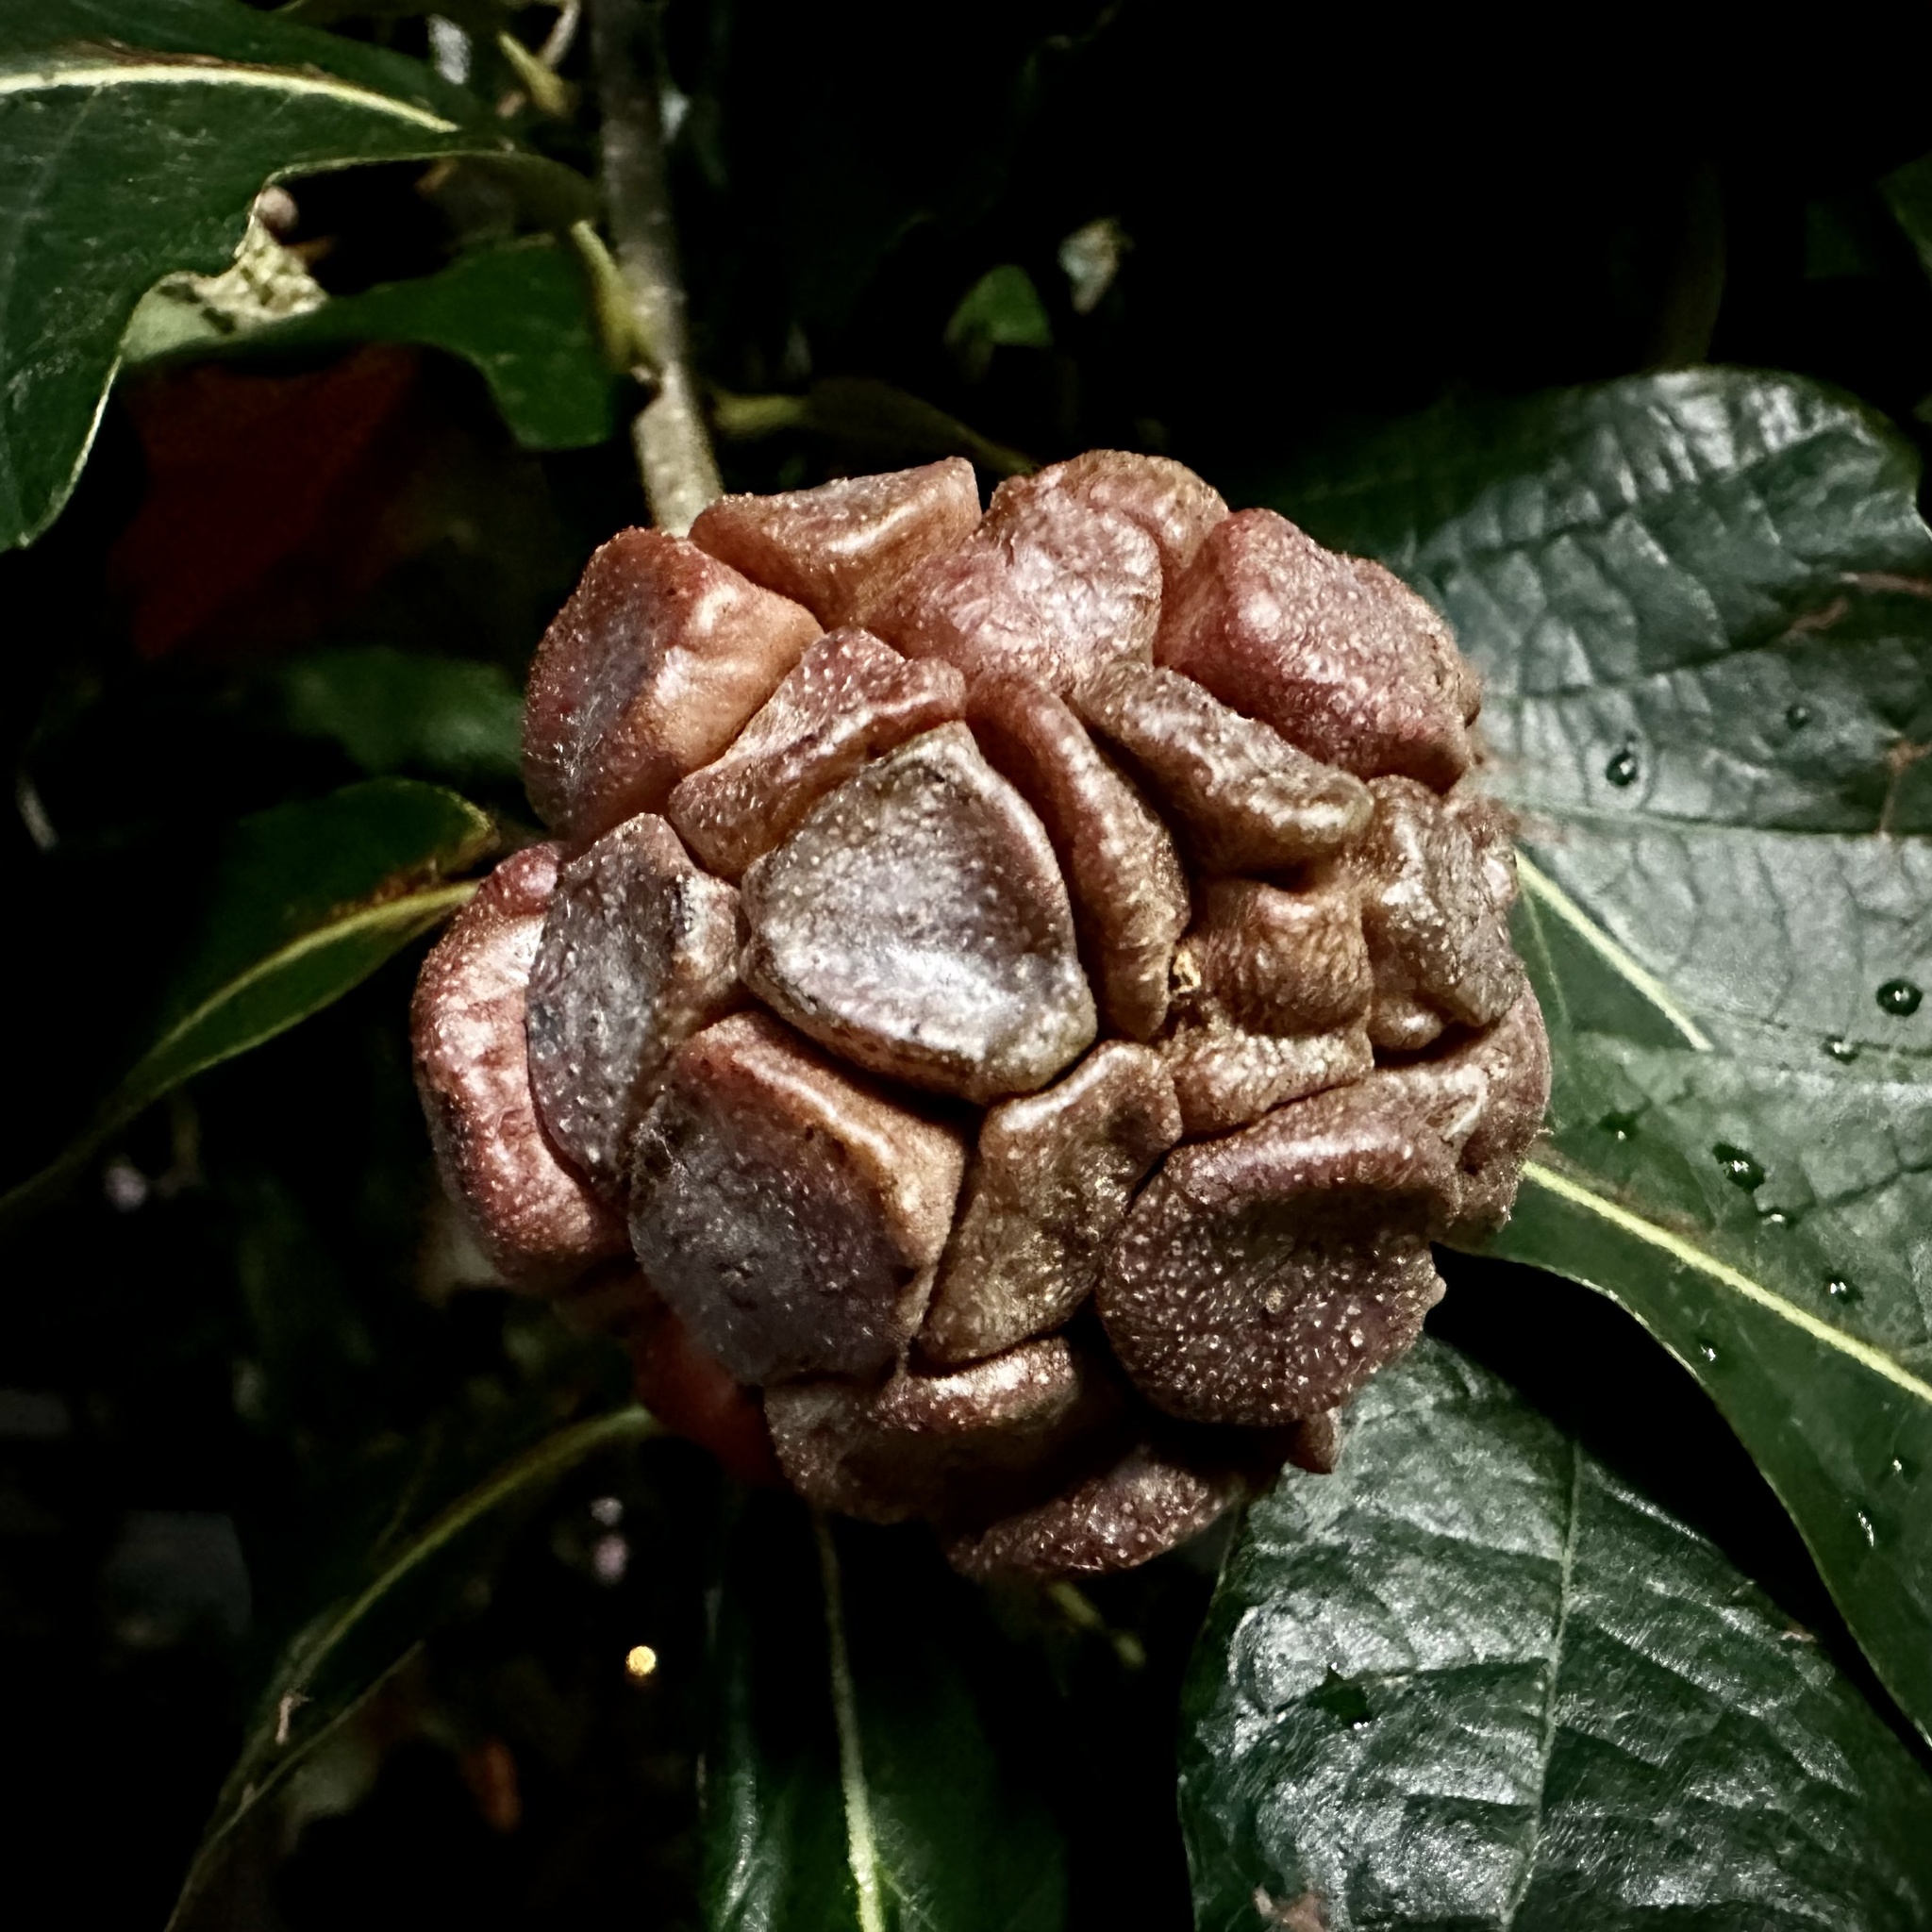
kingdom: Animalia
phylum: Arthropoda
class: Insecta
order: Hymenoptera
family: Cynipidae
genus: Andricus
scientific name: Andricus
